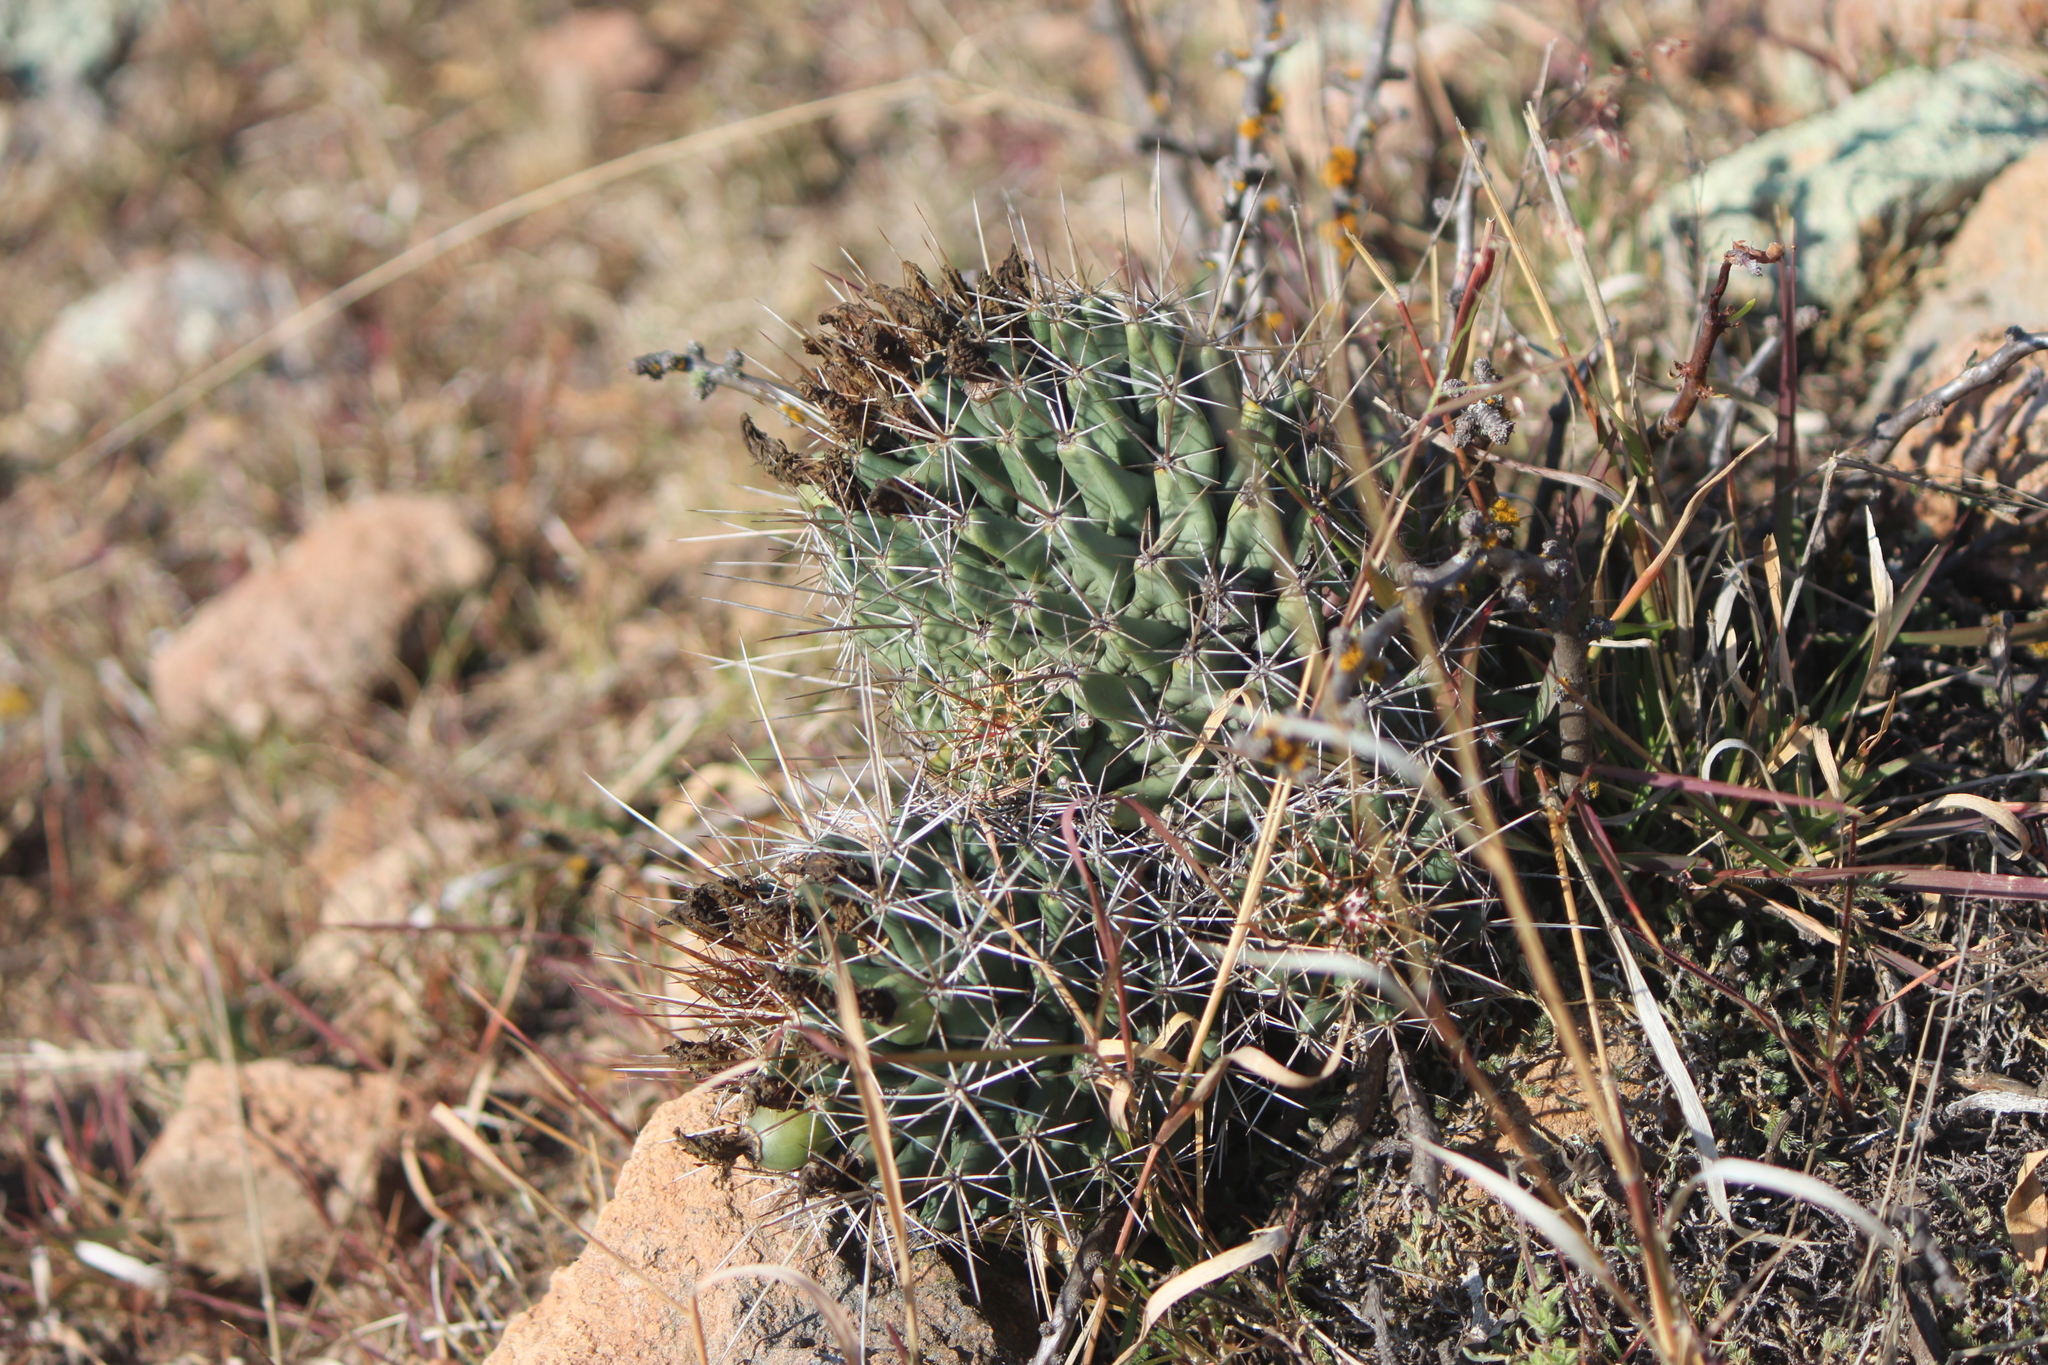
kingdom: Plantae
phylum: Tracheophyta
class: Magnoliopsida
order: Caryophyllales
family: Cactaceae
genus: Coryphantha
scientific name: Coryphantha octacantha
